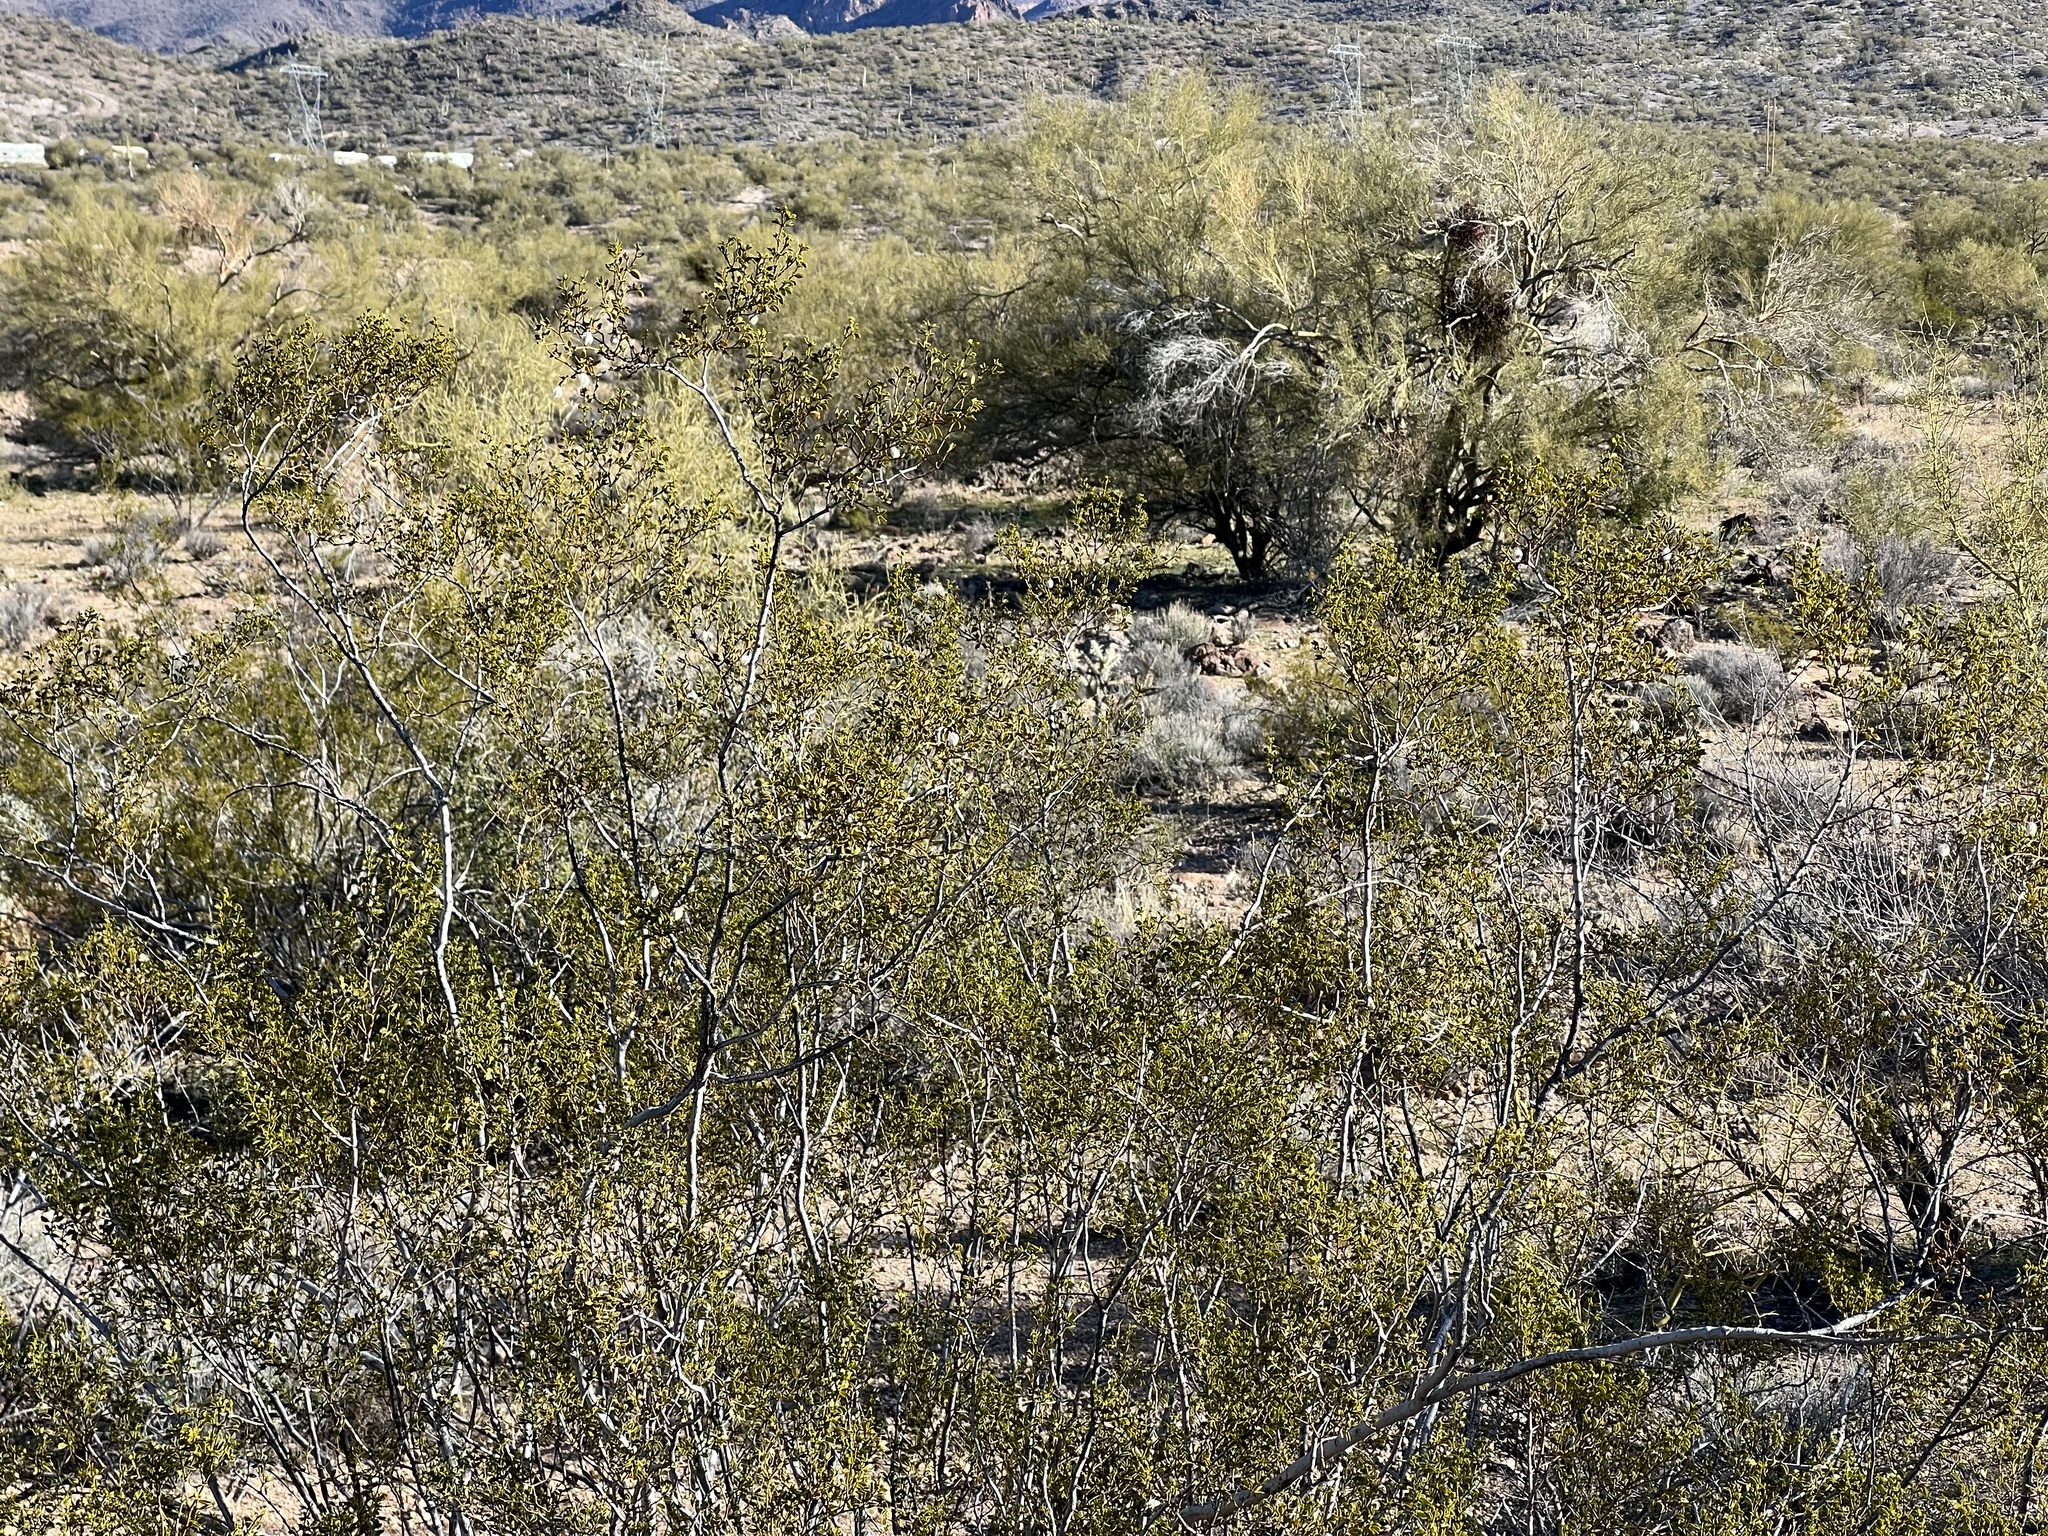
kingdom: Plantae
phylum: Tracheophyta
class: Magnoliopsida
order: Zygophyllales
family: Zygophyllaceae
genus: Larrea
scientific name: Larrea tridentata
